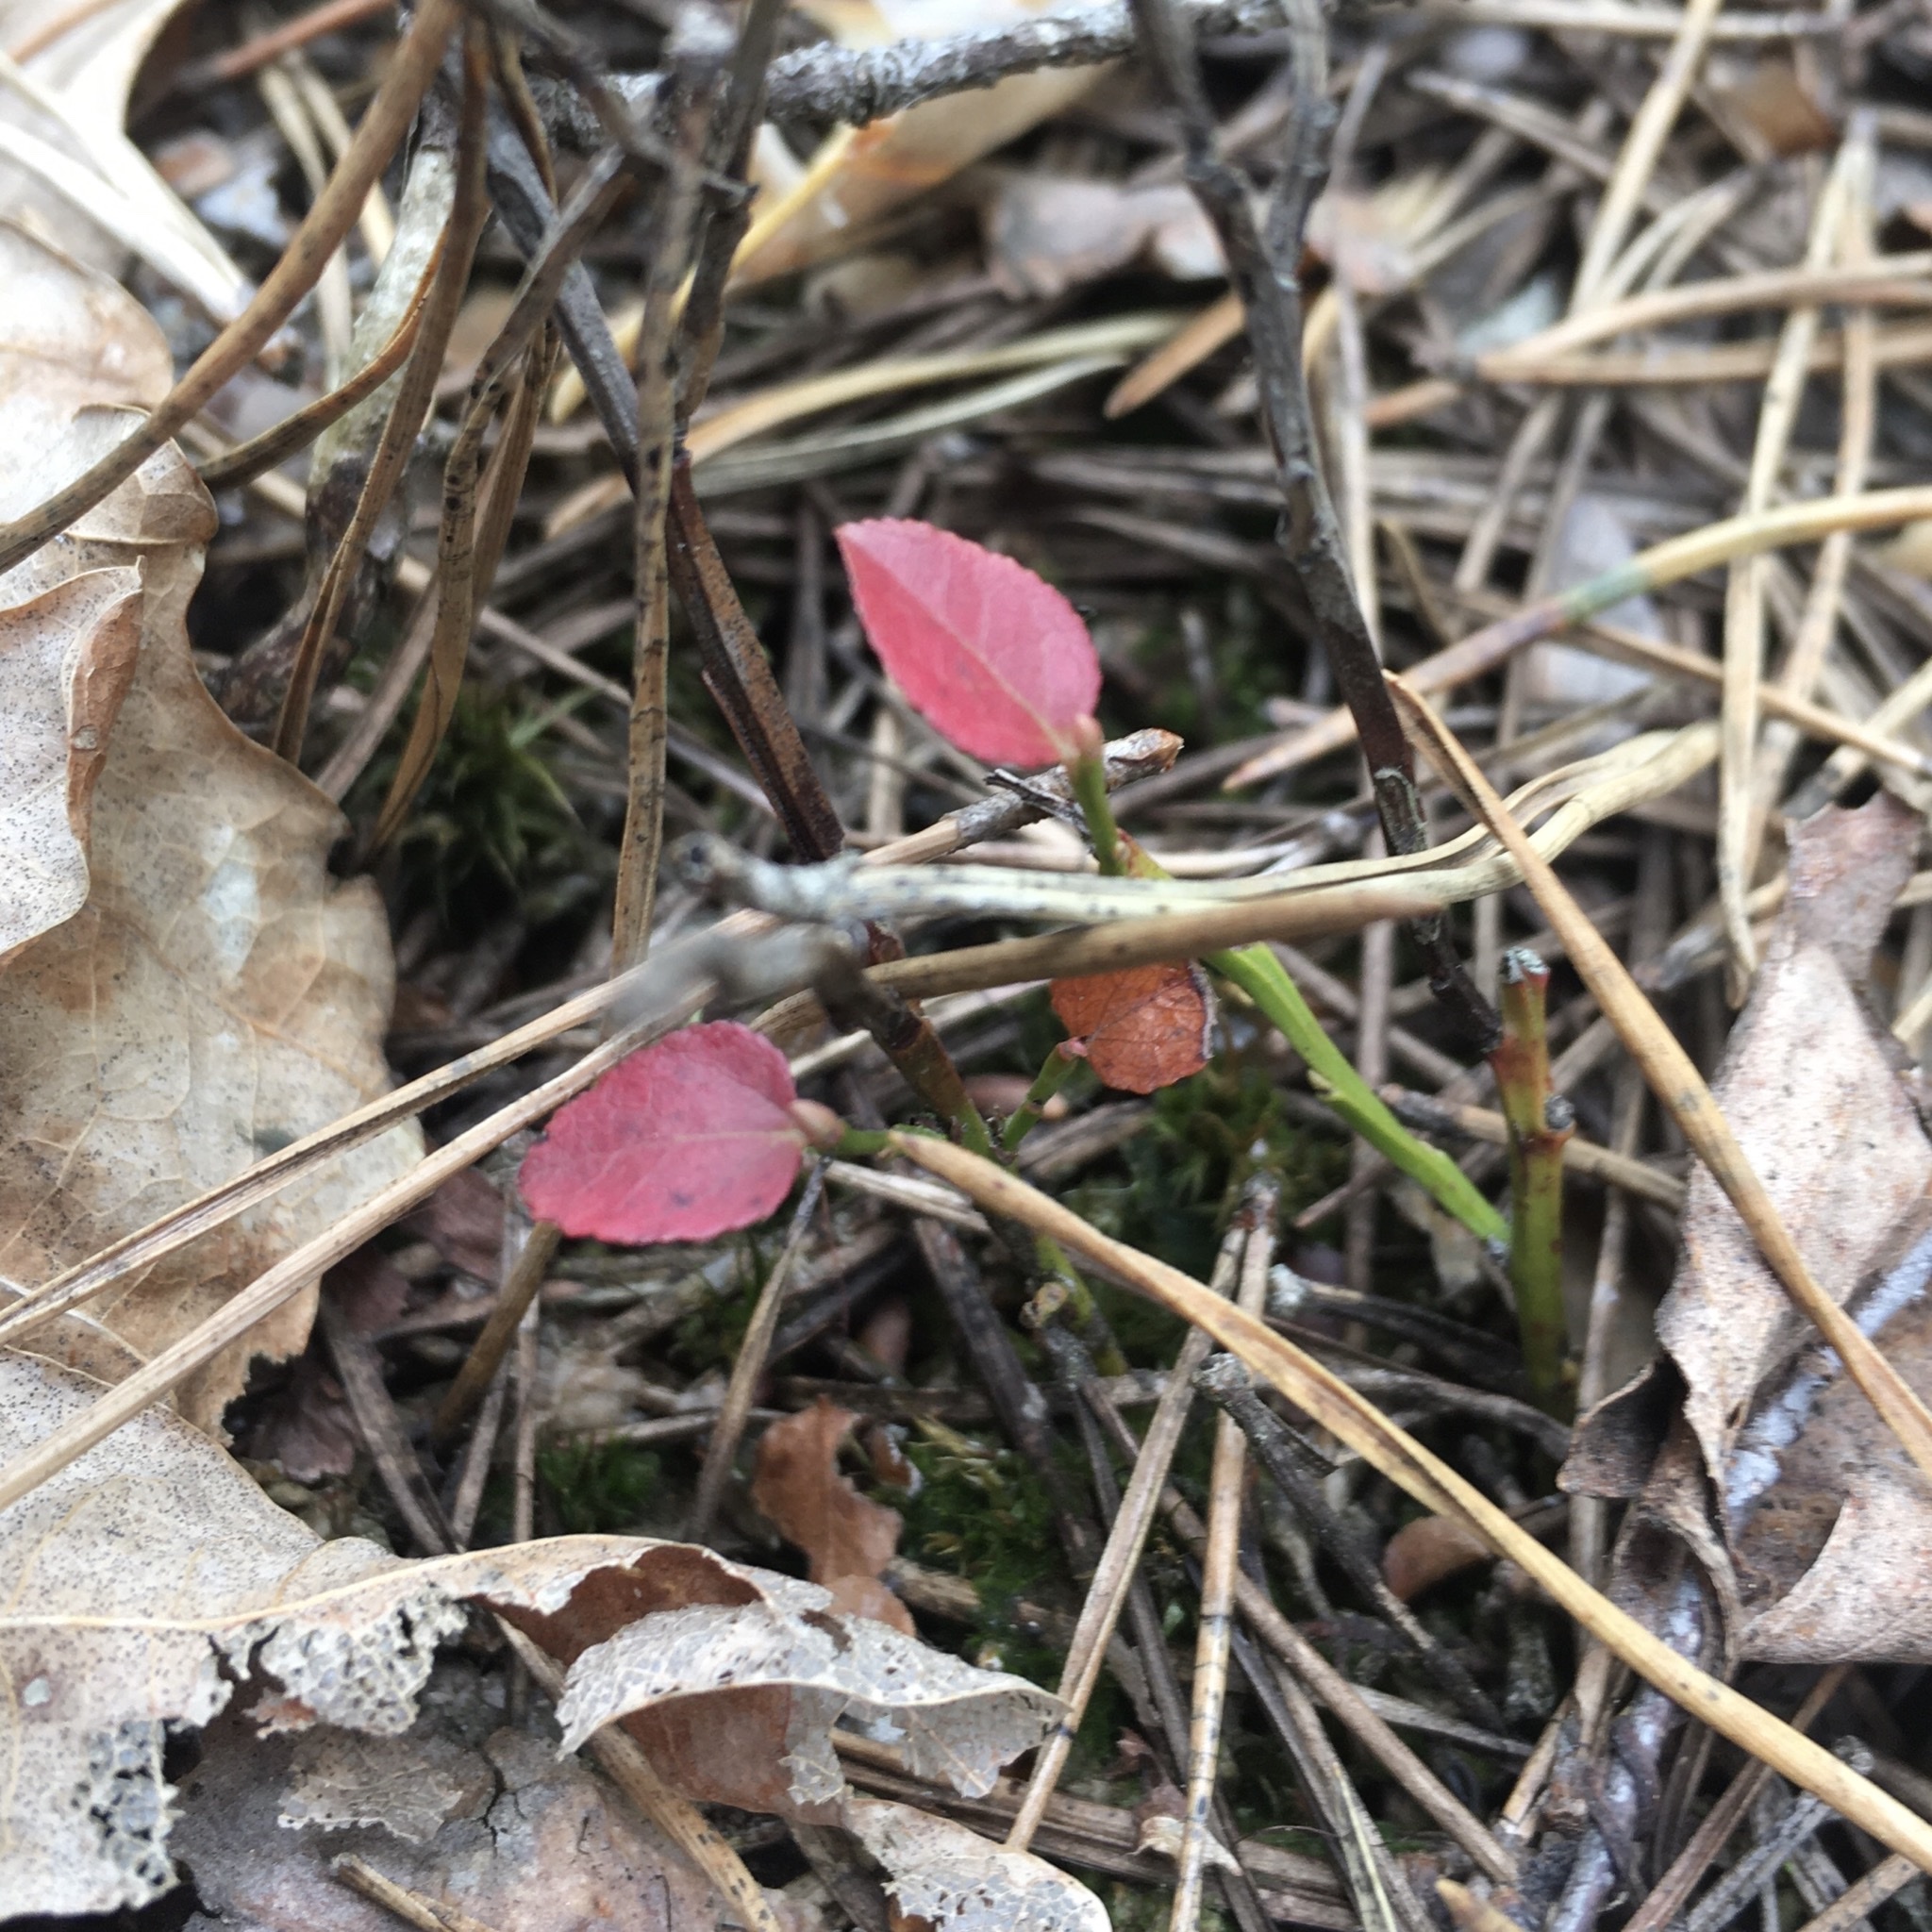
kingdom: Plantae
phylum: Tracheophyta
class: Magnoliopsida
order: Ericales
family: Ericaceae
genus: Vaccinium
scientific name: Vaccinium myrtillus
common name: Bilberry
